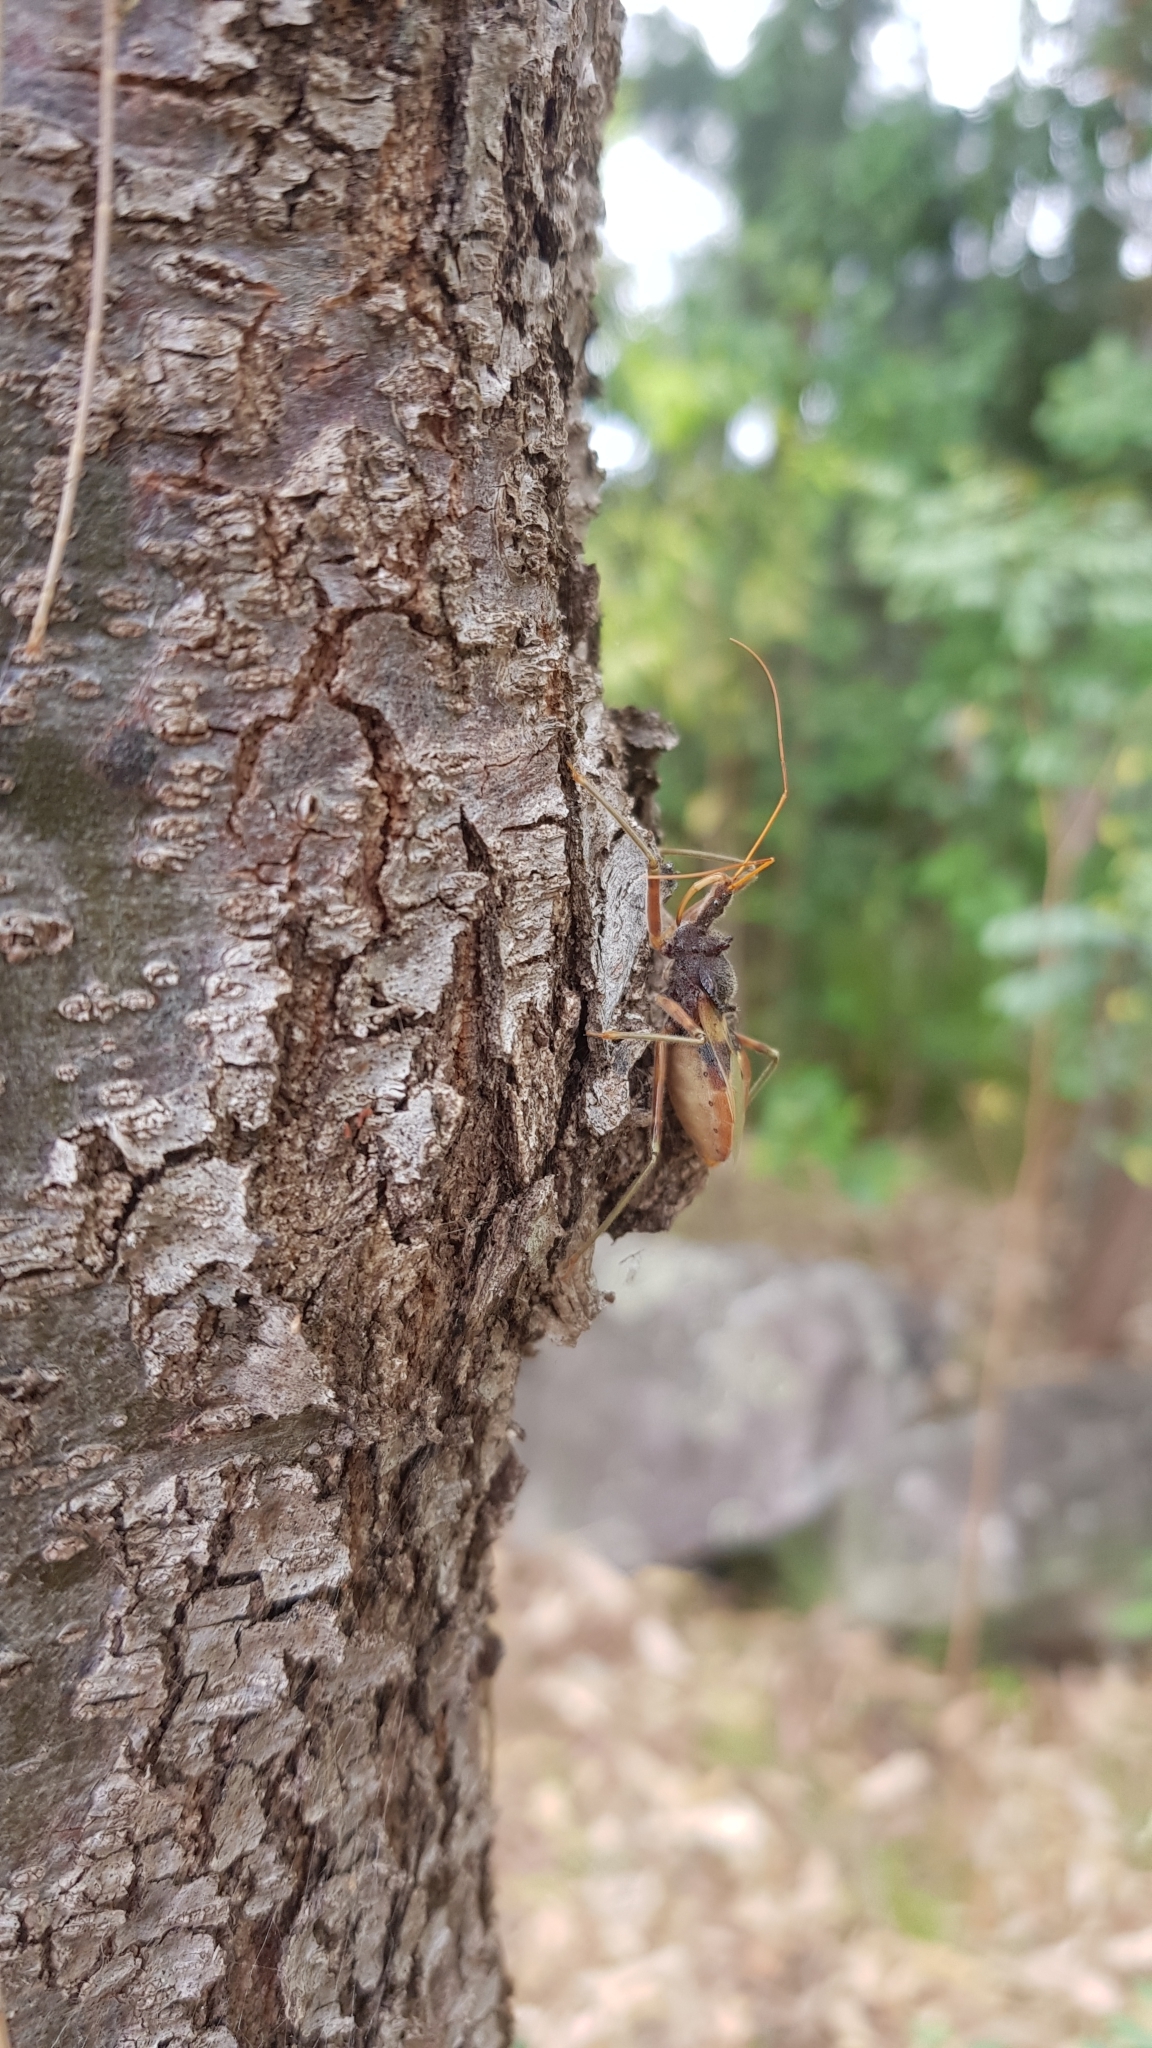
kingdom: Animalia
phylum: Arthropoda
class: Insecta
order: Hemiptera
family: Reduviidae
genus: Pristhesancus
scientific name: Pristhesancus plagipennis
